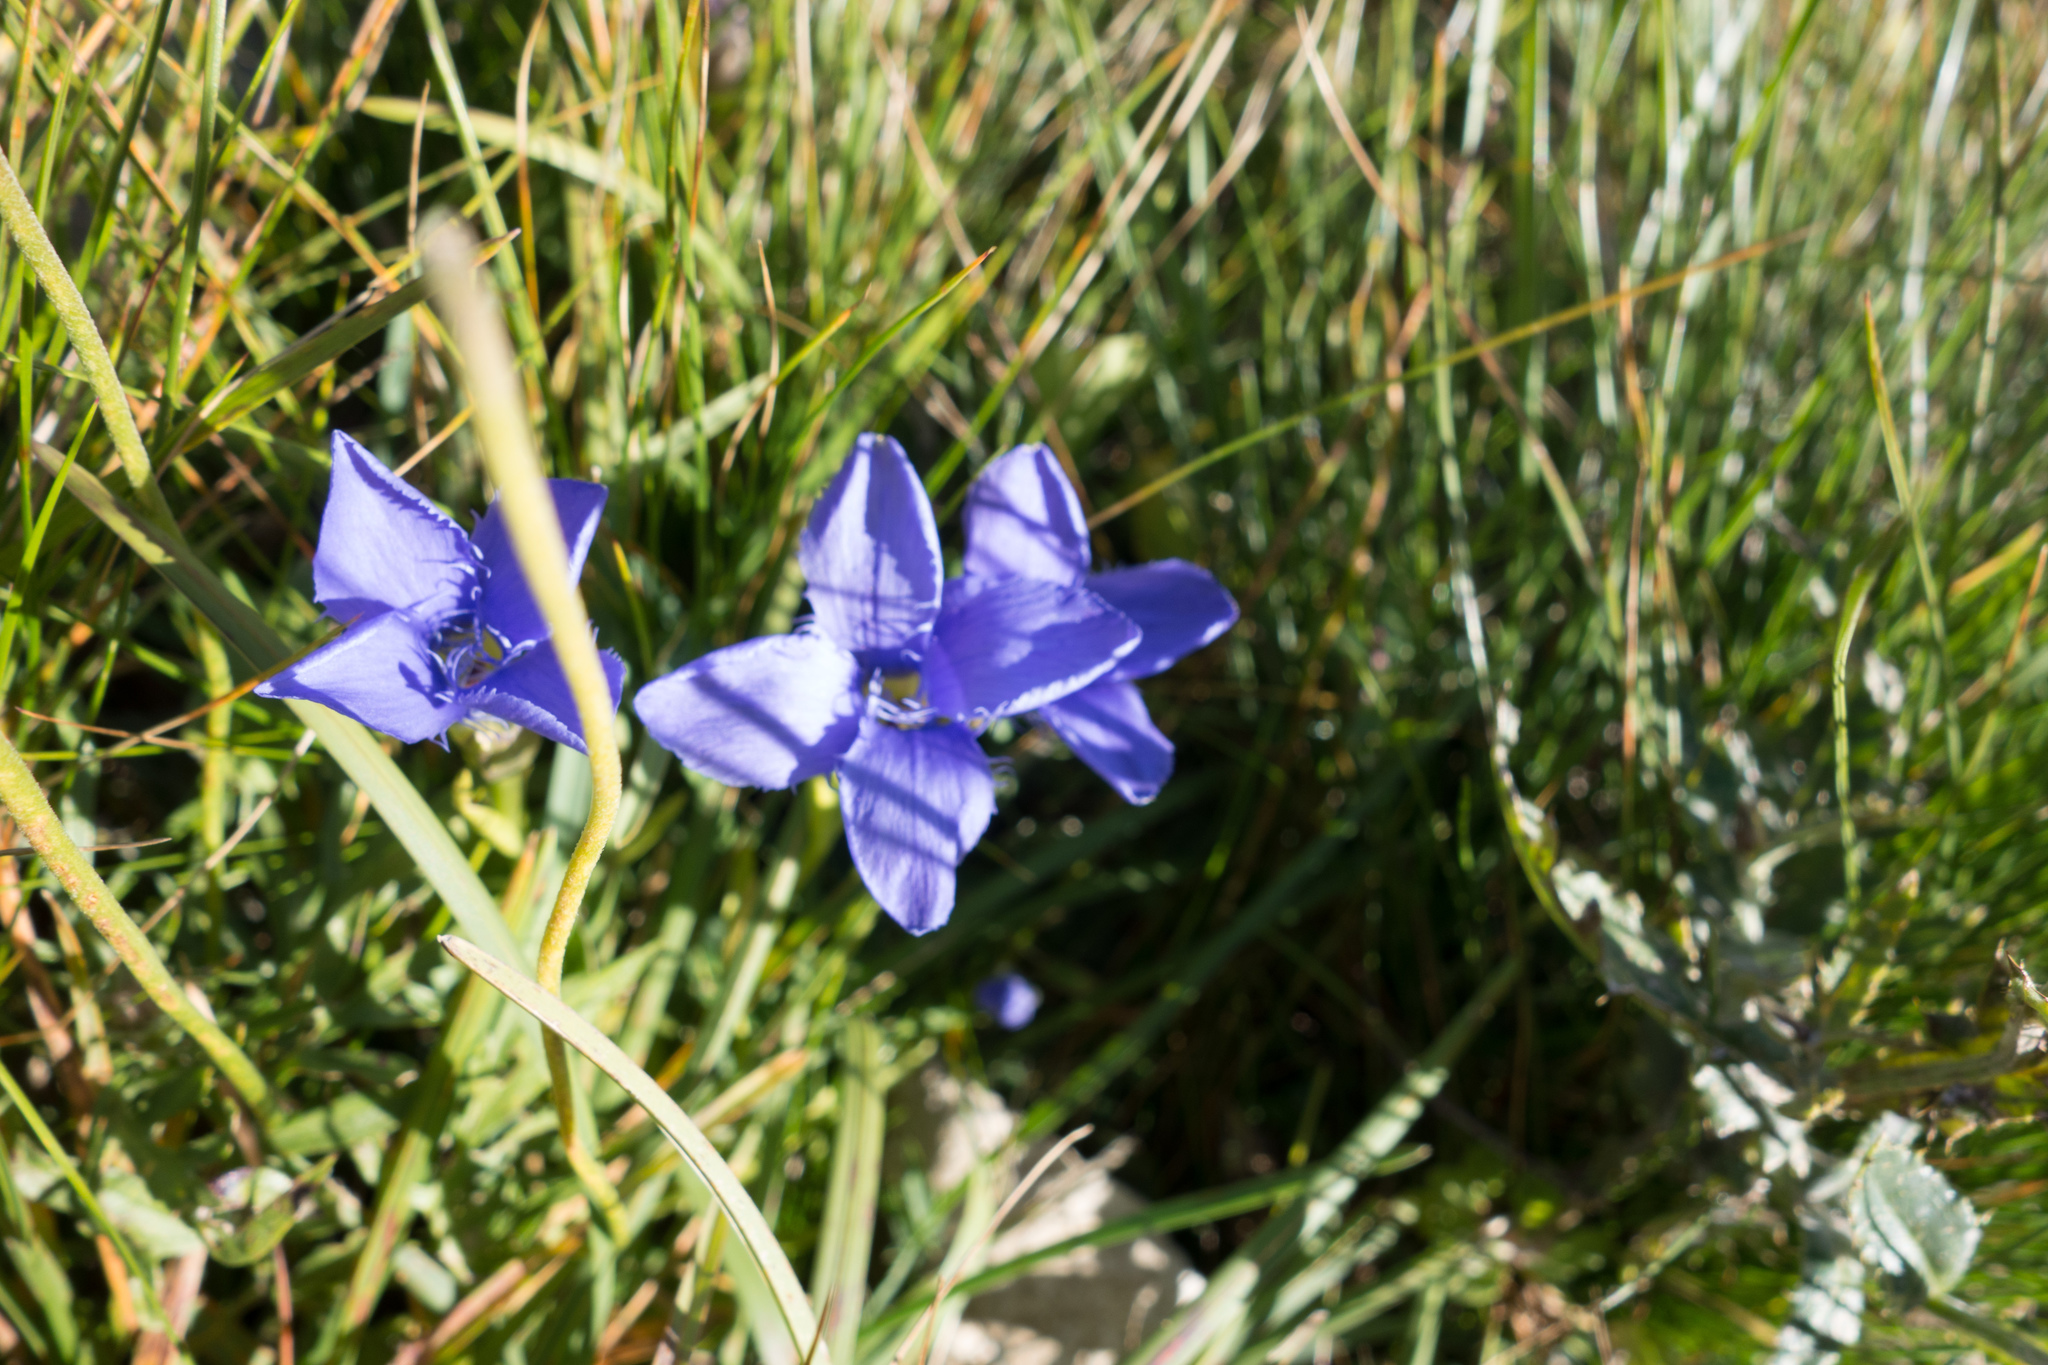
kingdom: Plantae
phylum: Tracheophyta
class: Magnoliopsida
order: Gentianales
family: Gentianaceae
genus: Gentianopsis
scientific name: Gentianopsis ciliata
